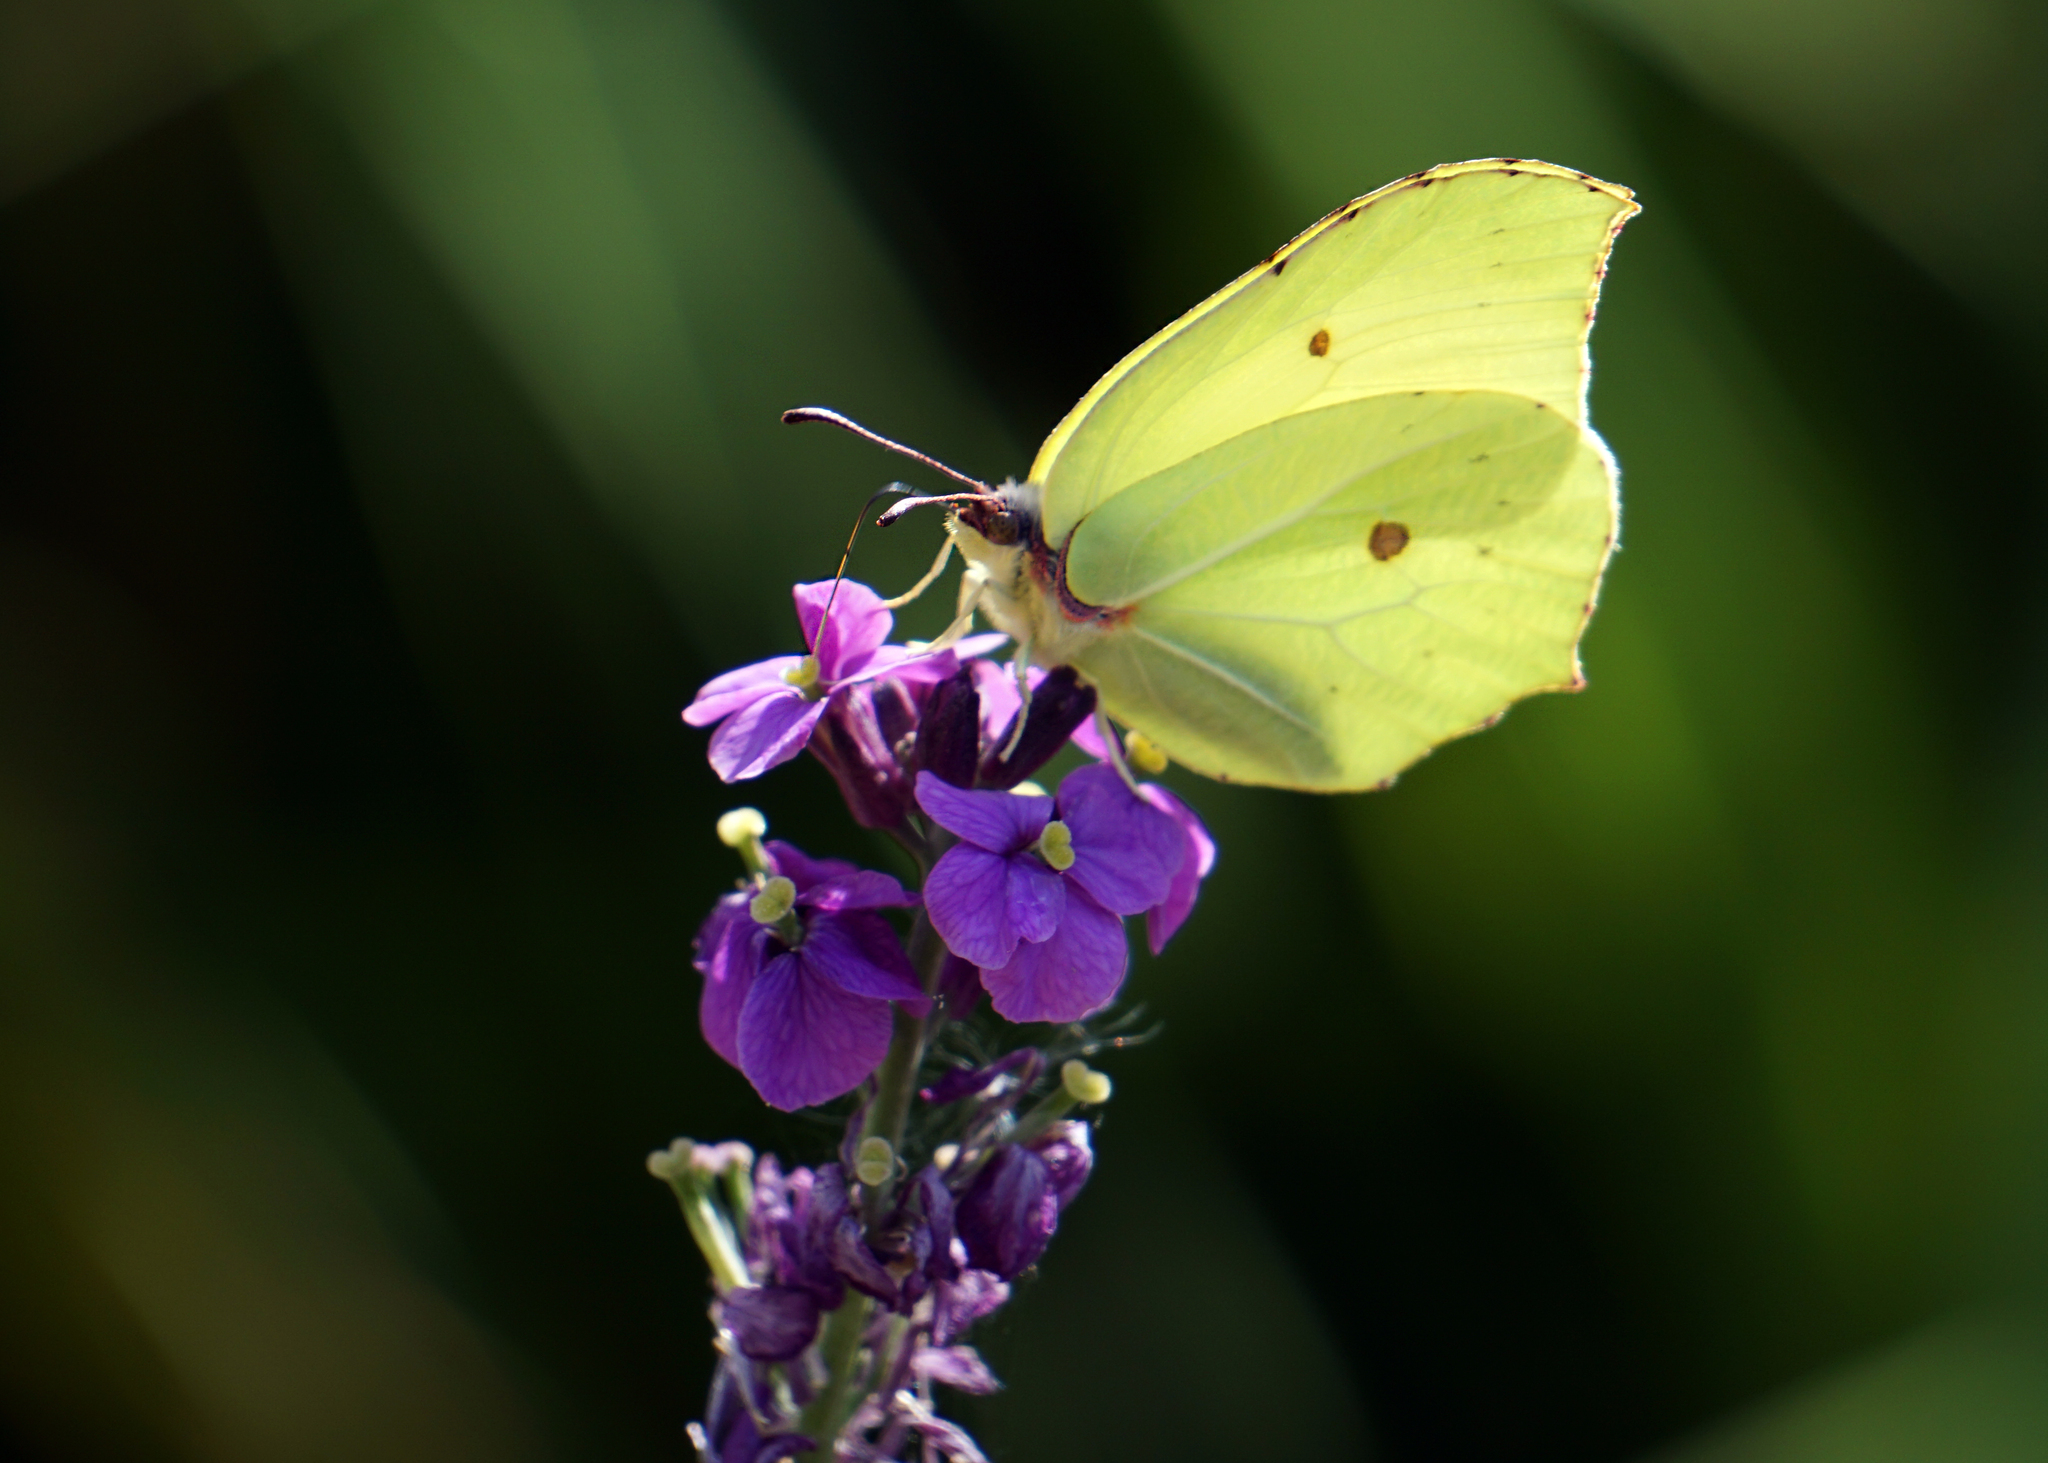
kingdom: Animalia
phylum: Arthropoda
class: Insecta
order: Lepidoptera
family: Pieridae
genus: Gonepteryx
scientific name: Gonepteryx rhamni
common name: Brimstone
